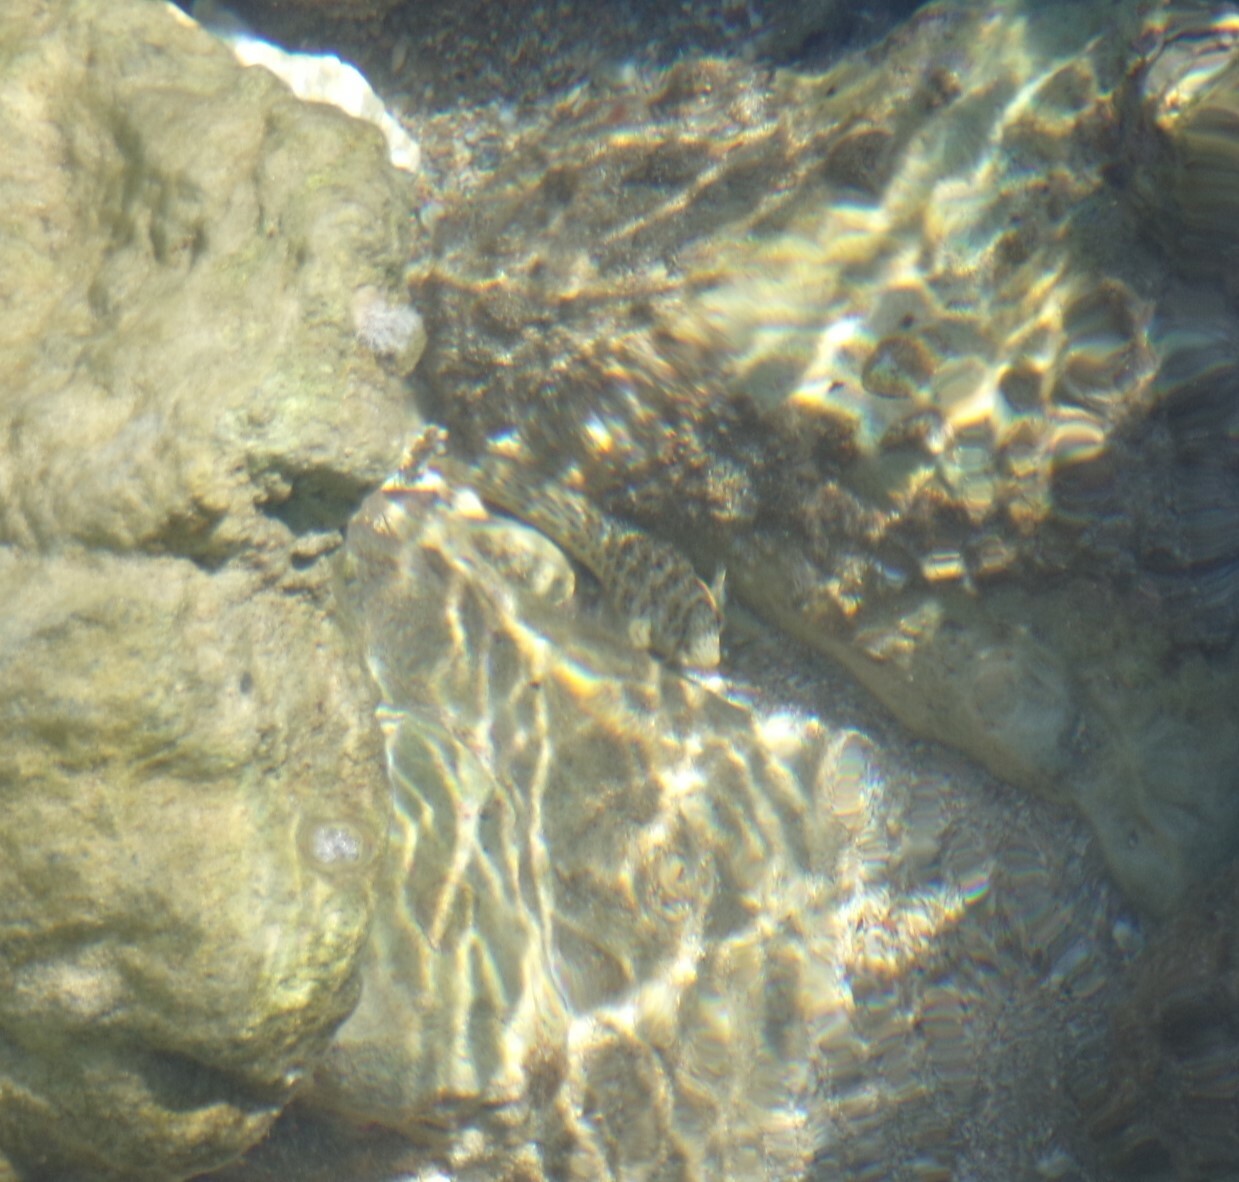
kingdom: Animalia
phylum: Chordata
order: Perciformes
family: Blenniidae
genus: Parablennius
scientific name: Parablennius sanguinolentus
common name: Black sea blenny
